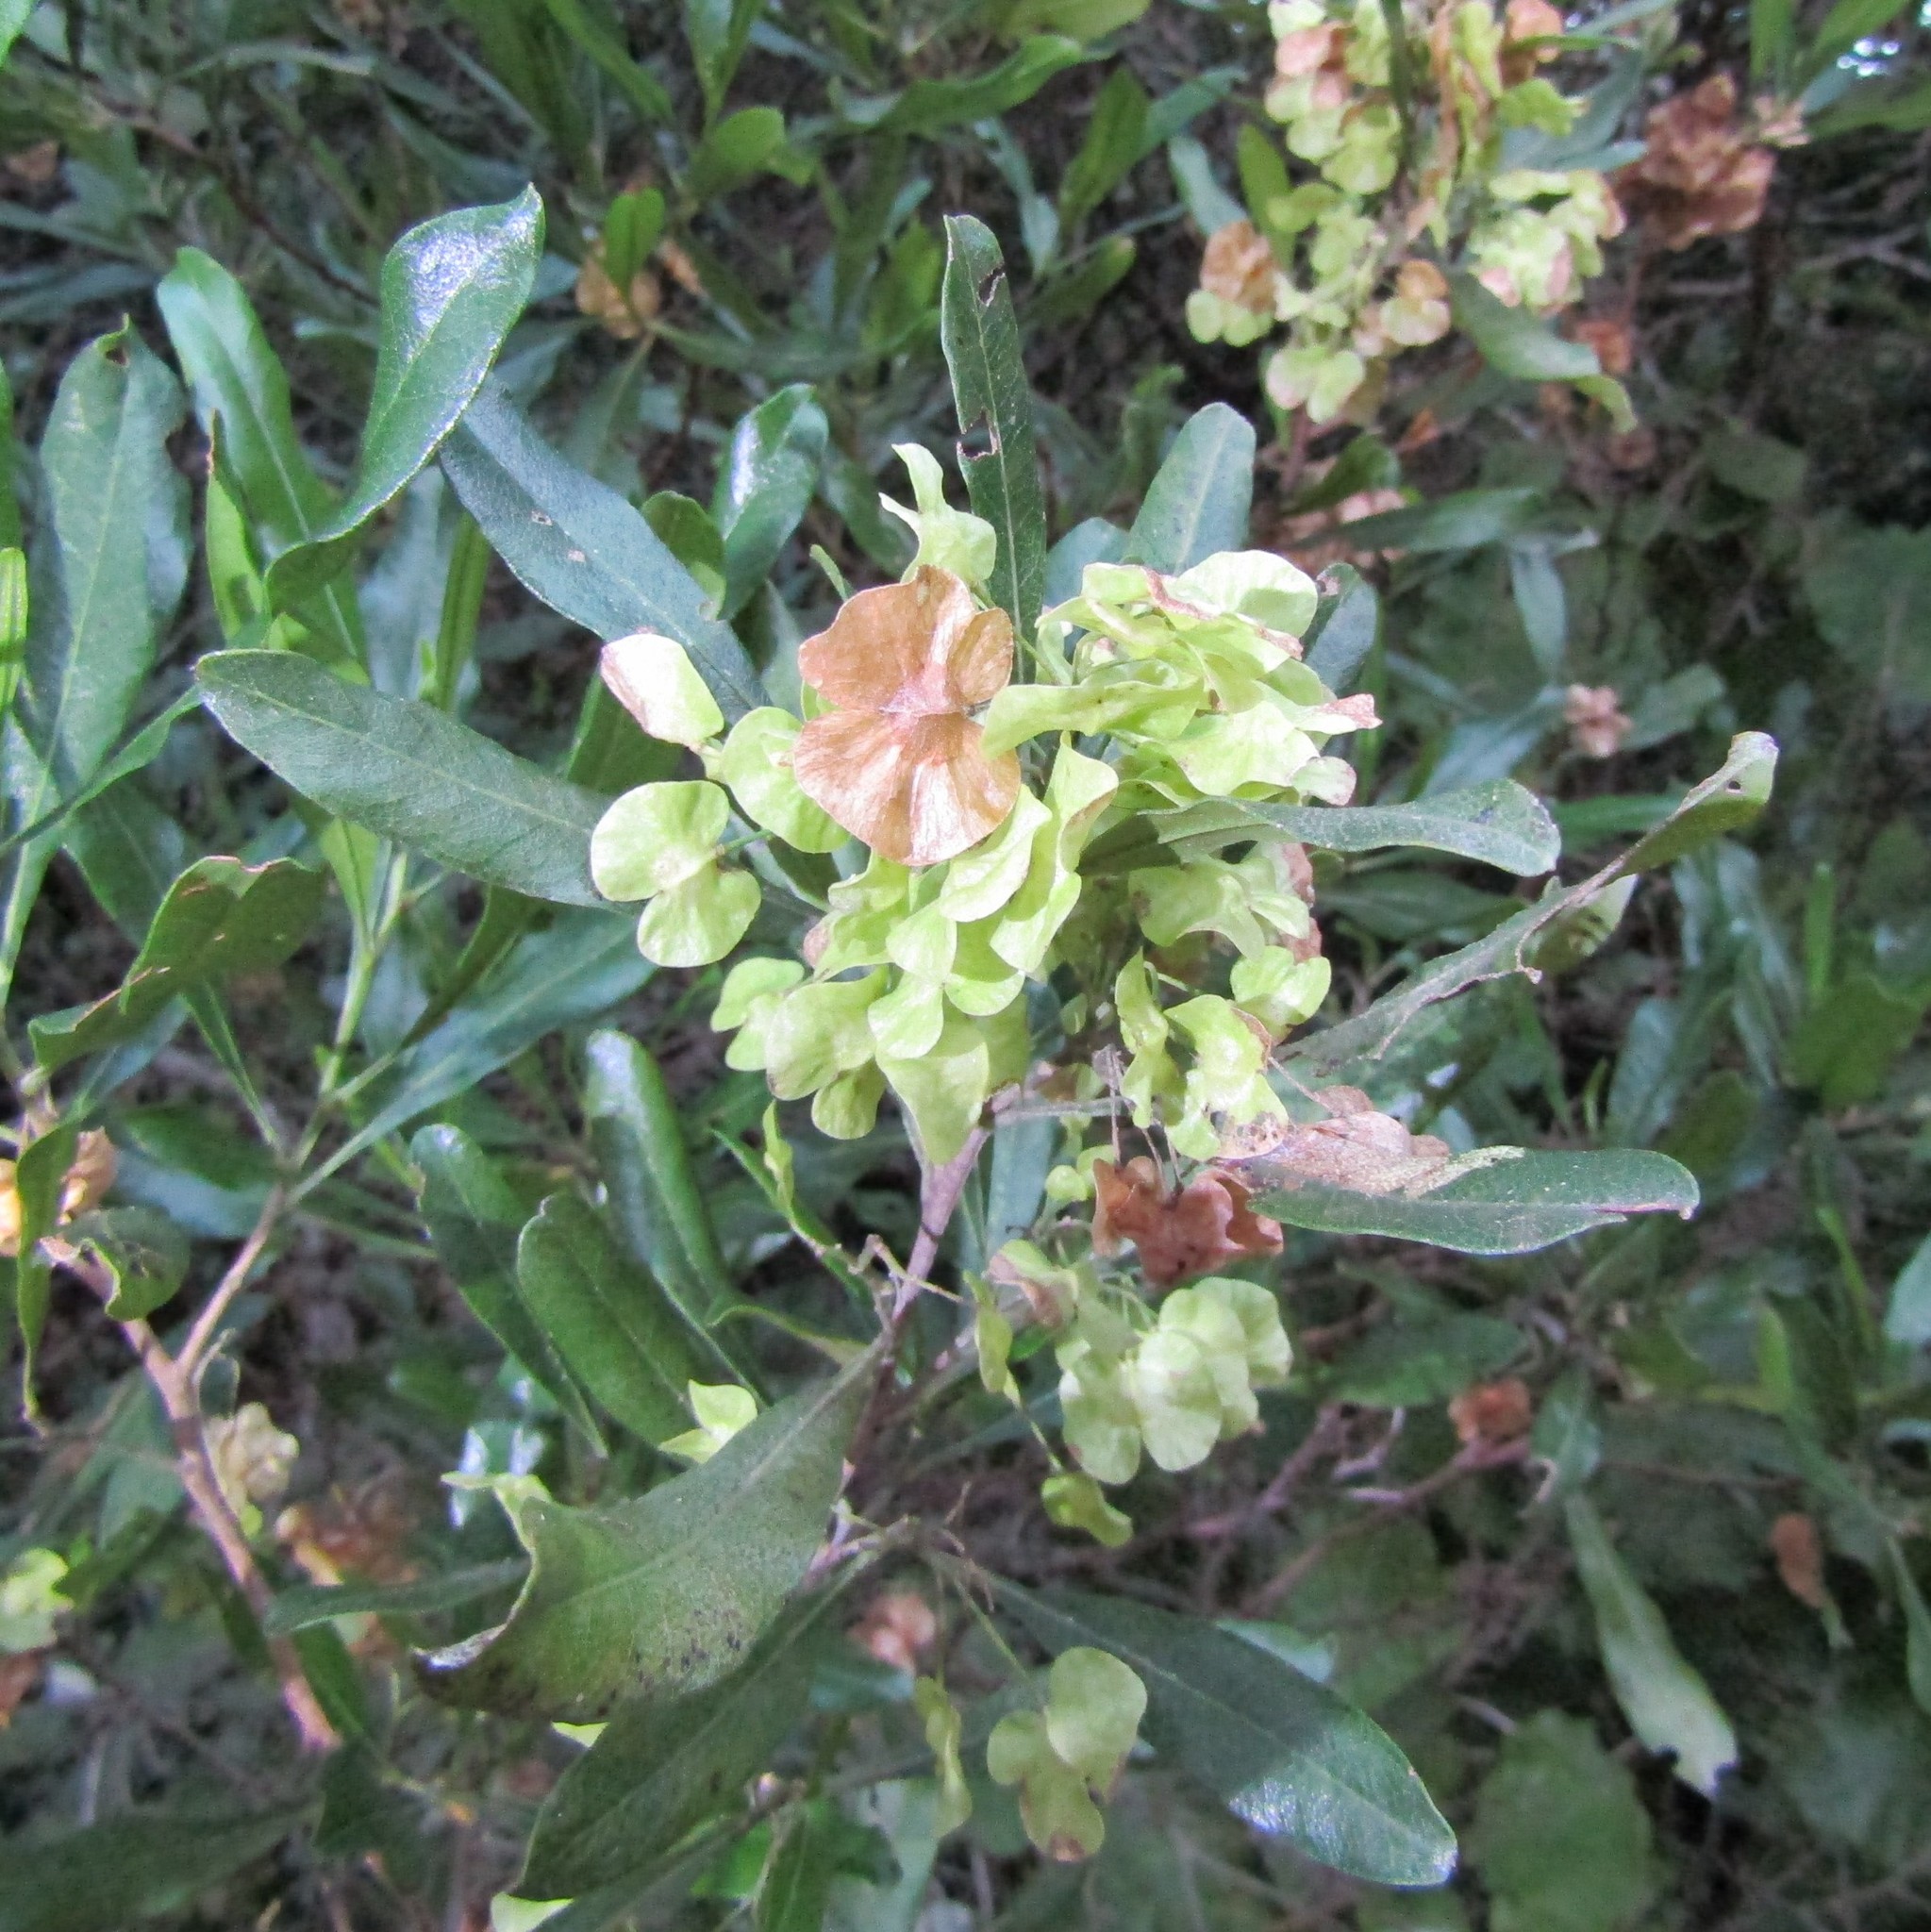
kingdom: Plantae
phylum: Tracheophyta
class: Magnoliopsida
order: Sapindales
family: Sapindaceae
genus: Dodonaea
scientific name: Dodonaea viscosa
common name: Hopbush
